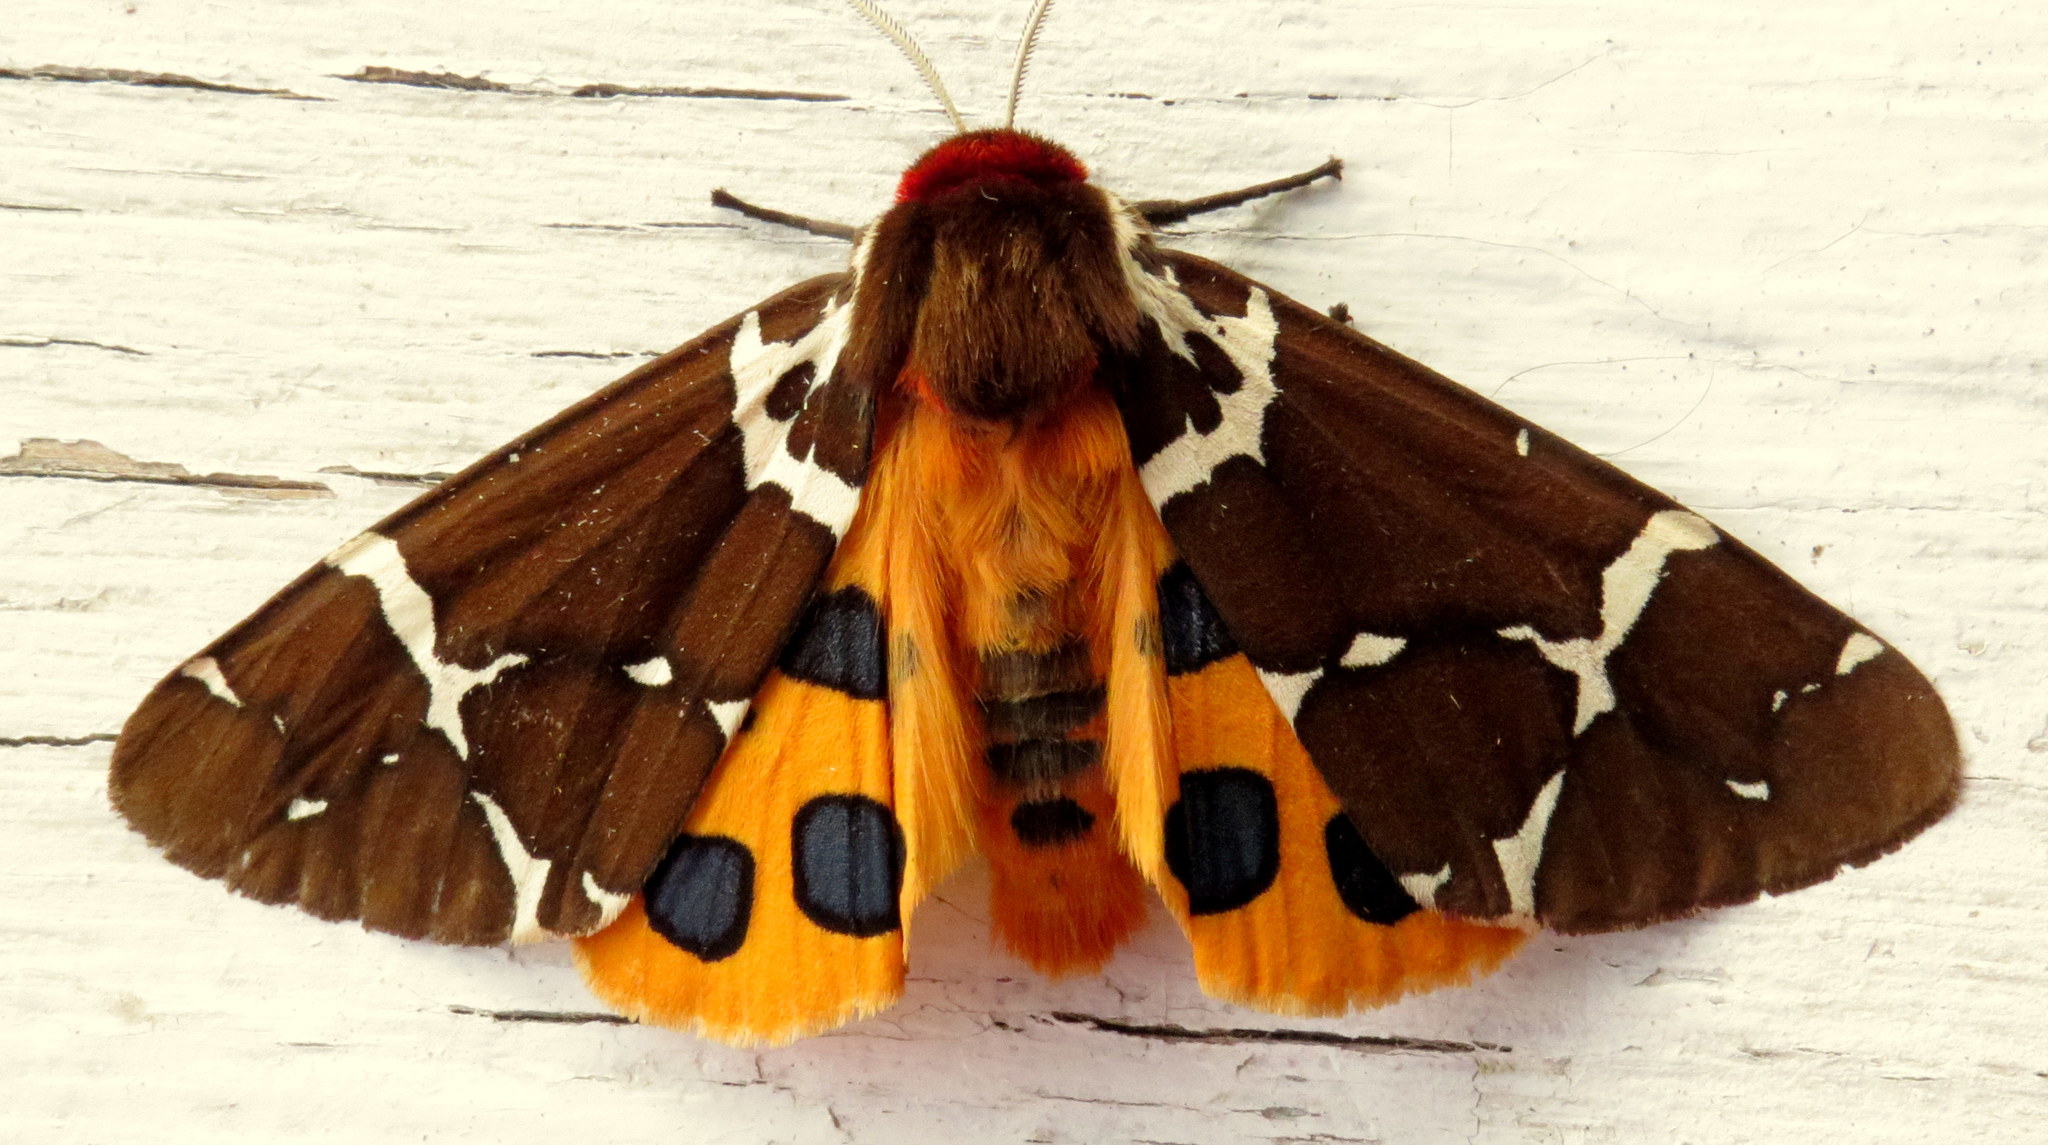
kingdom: Animalia
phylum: Arthropoda
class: Insecta
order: Lepidoptera
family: Erebidae
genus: Arctia
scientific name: Arctia caja
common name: Garden tiger
